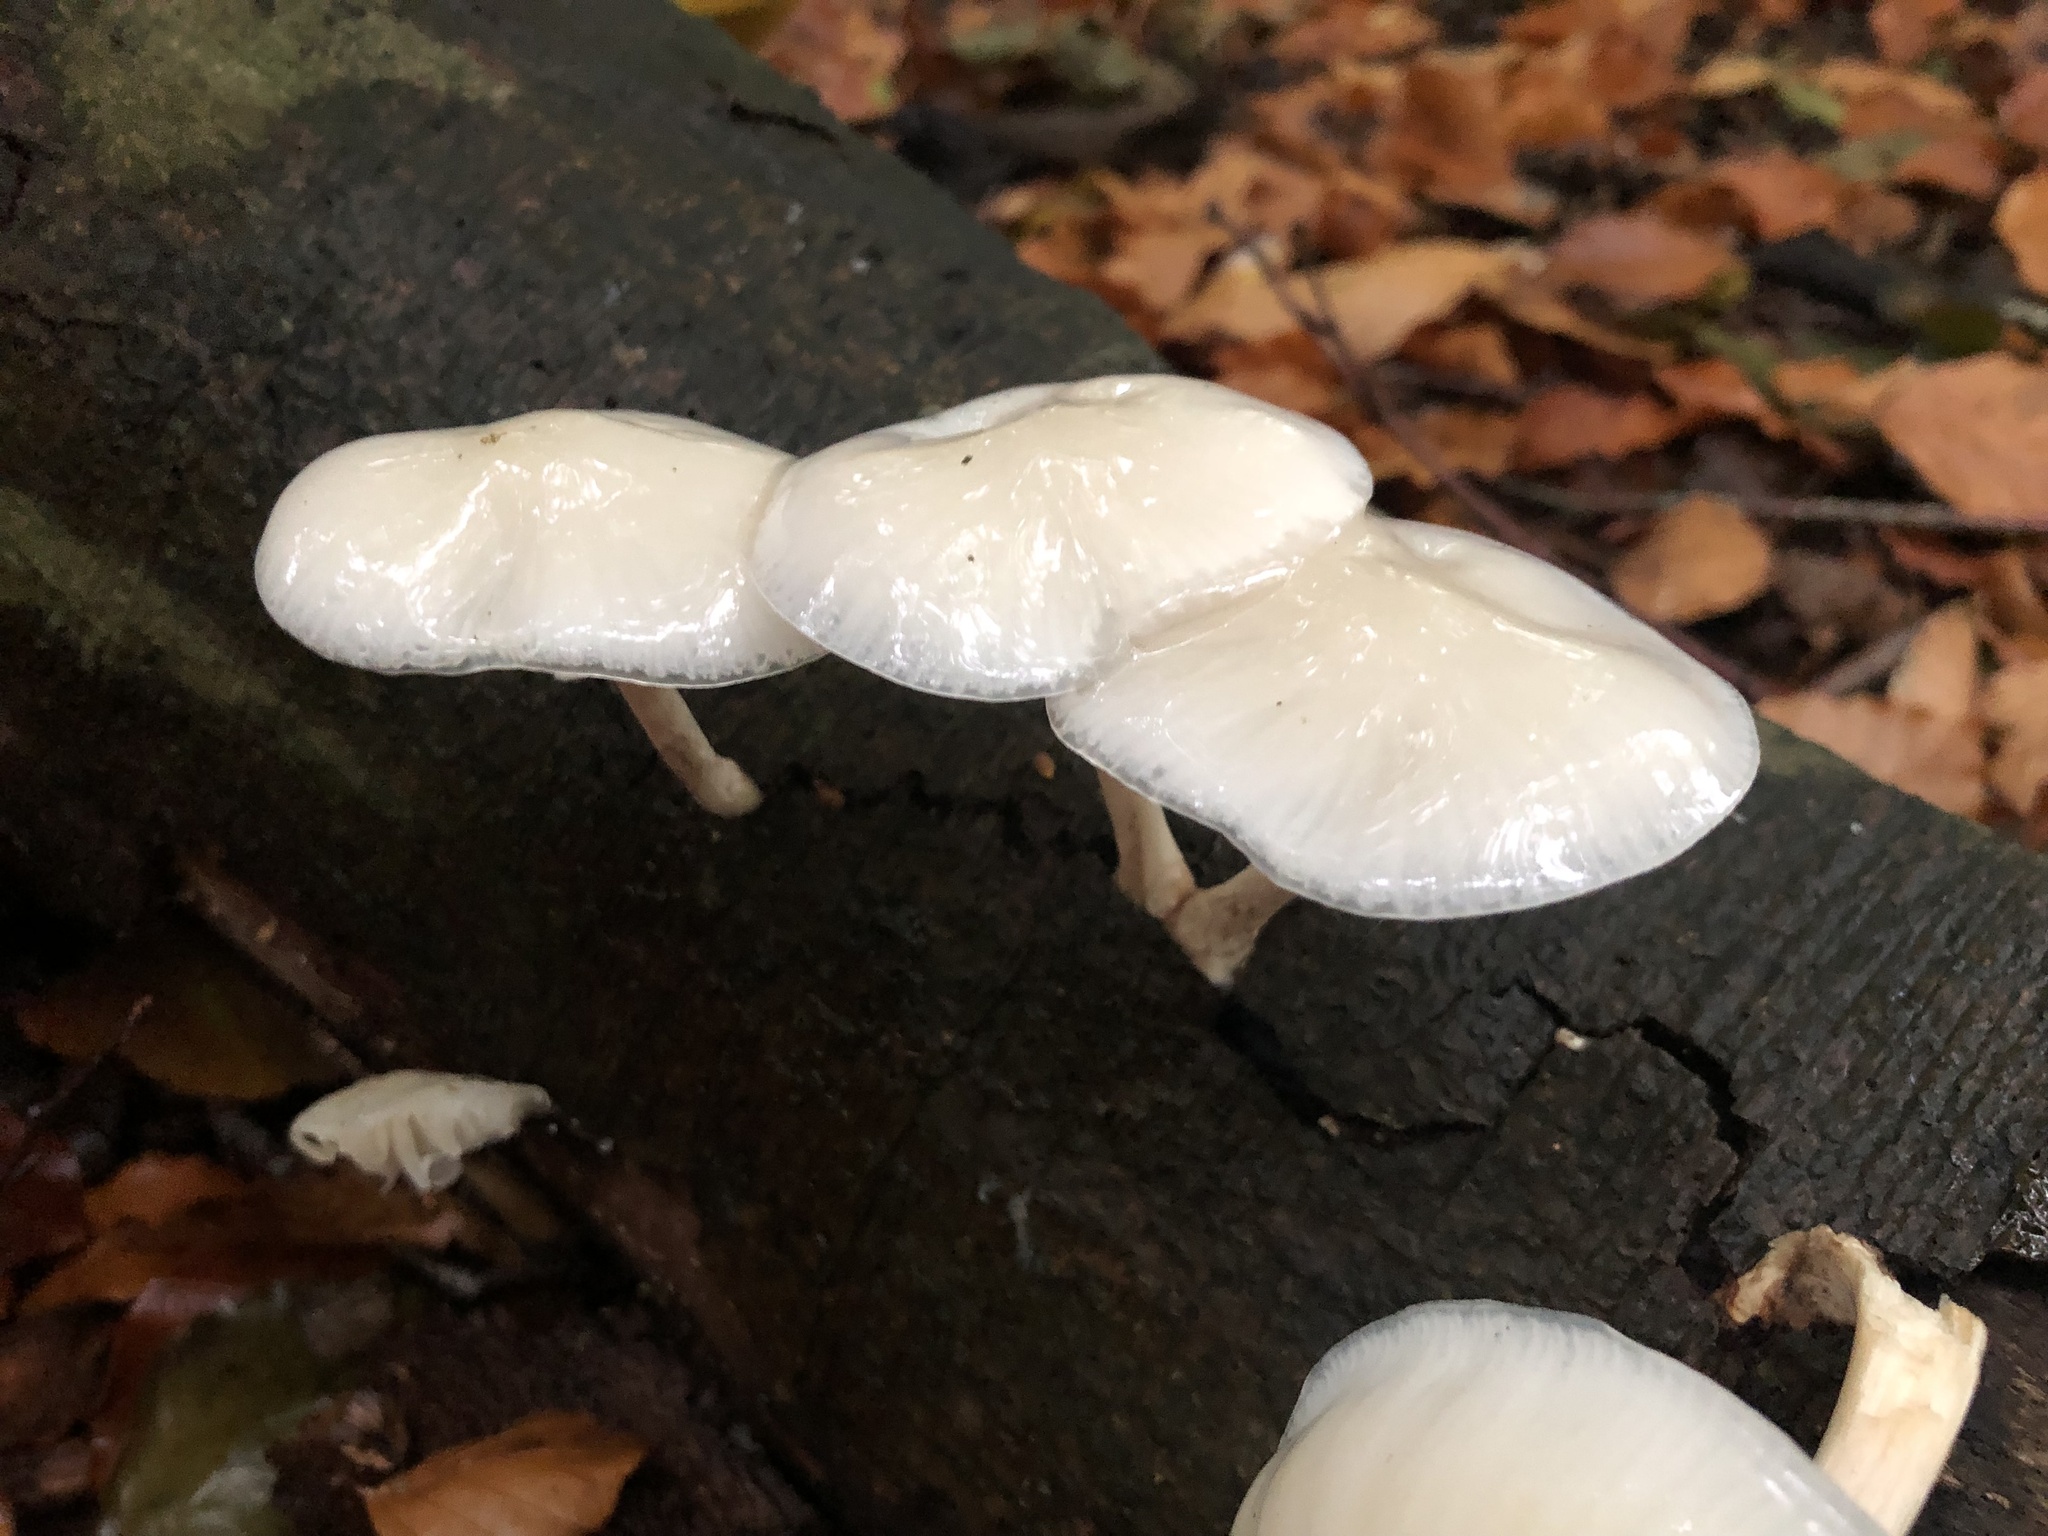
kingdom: Fungi
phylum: Basidiomycota
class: Agaricomycetes
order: Agaricales
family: Physalacriaceae
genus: Mucidula
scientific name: Mucidula mucida
